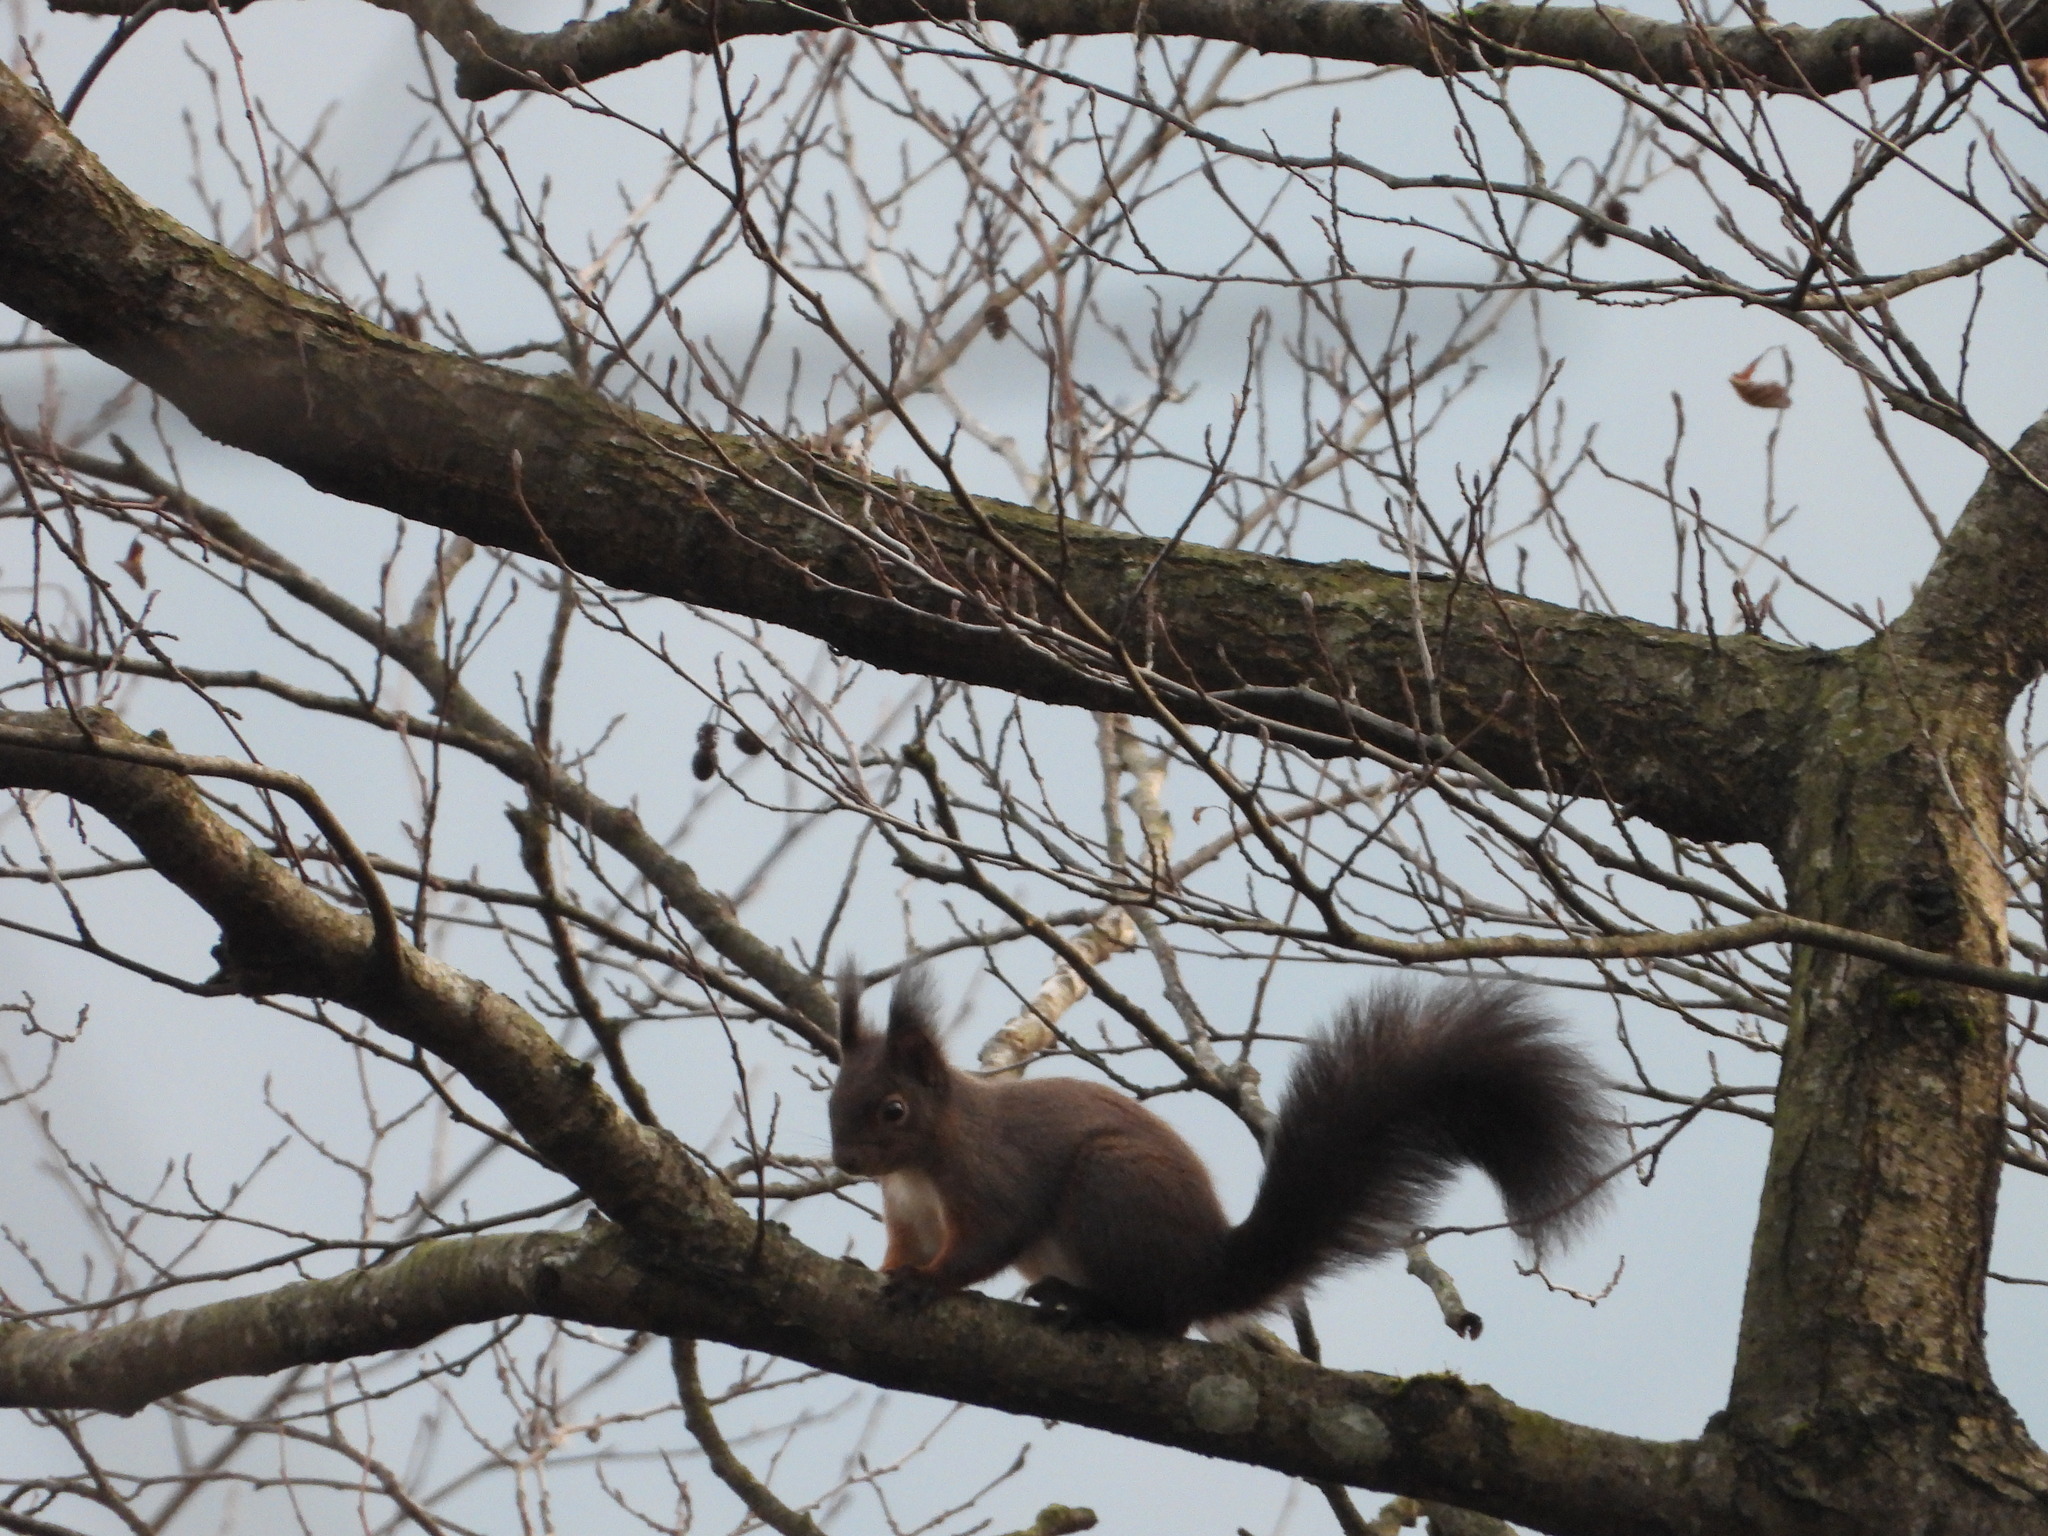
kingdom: Animalia
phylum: Chordata
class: Mammalia
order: Rodentia
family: Sciuridae
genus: Sciurus
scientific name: Sciurus vulgaris
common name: Eurasian red squirrel
